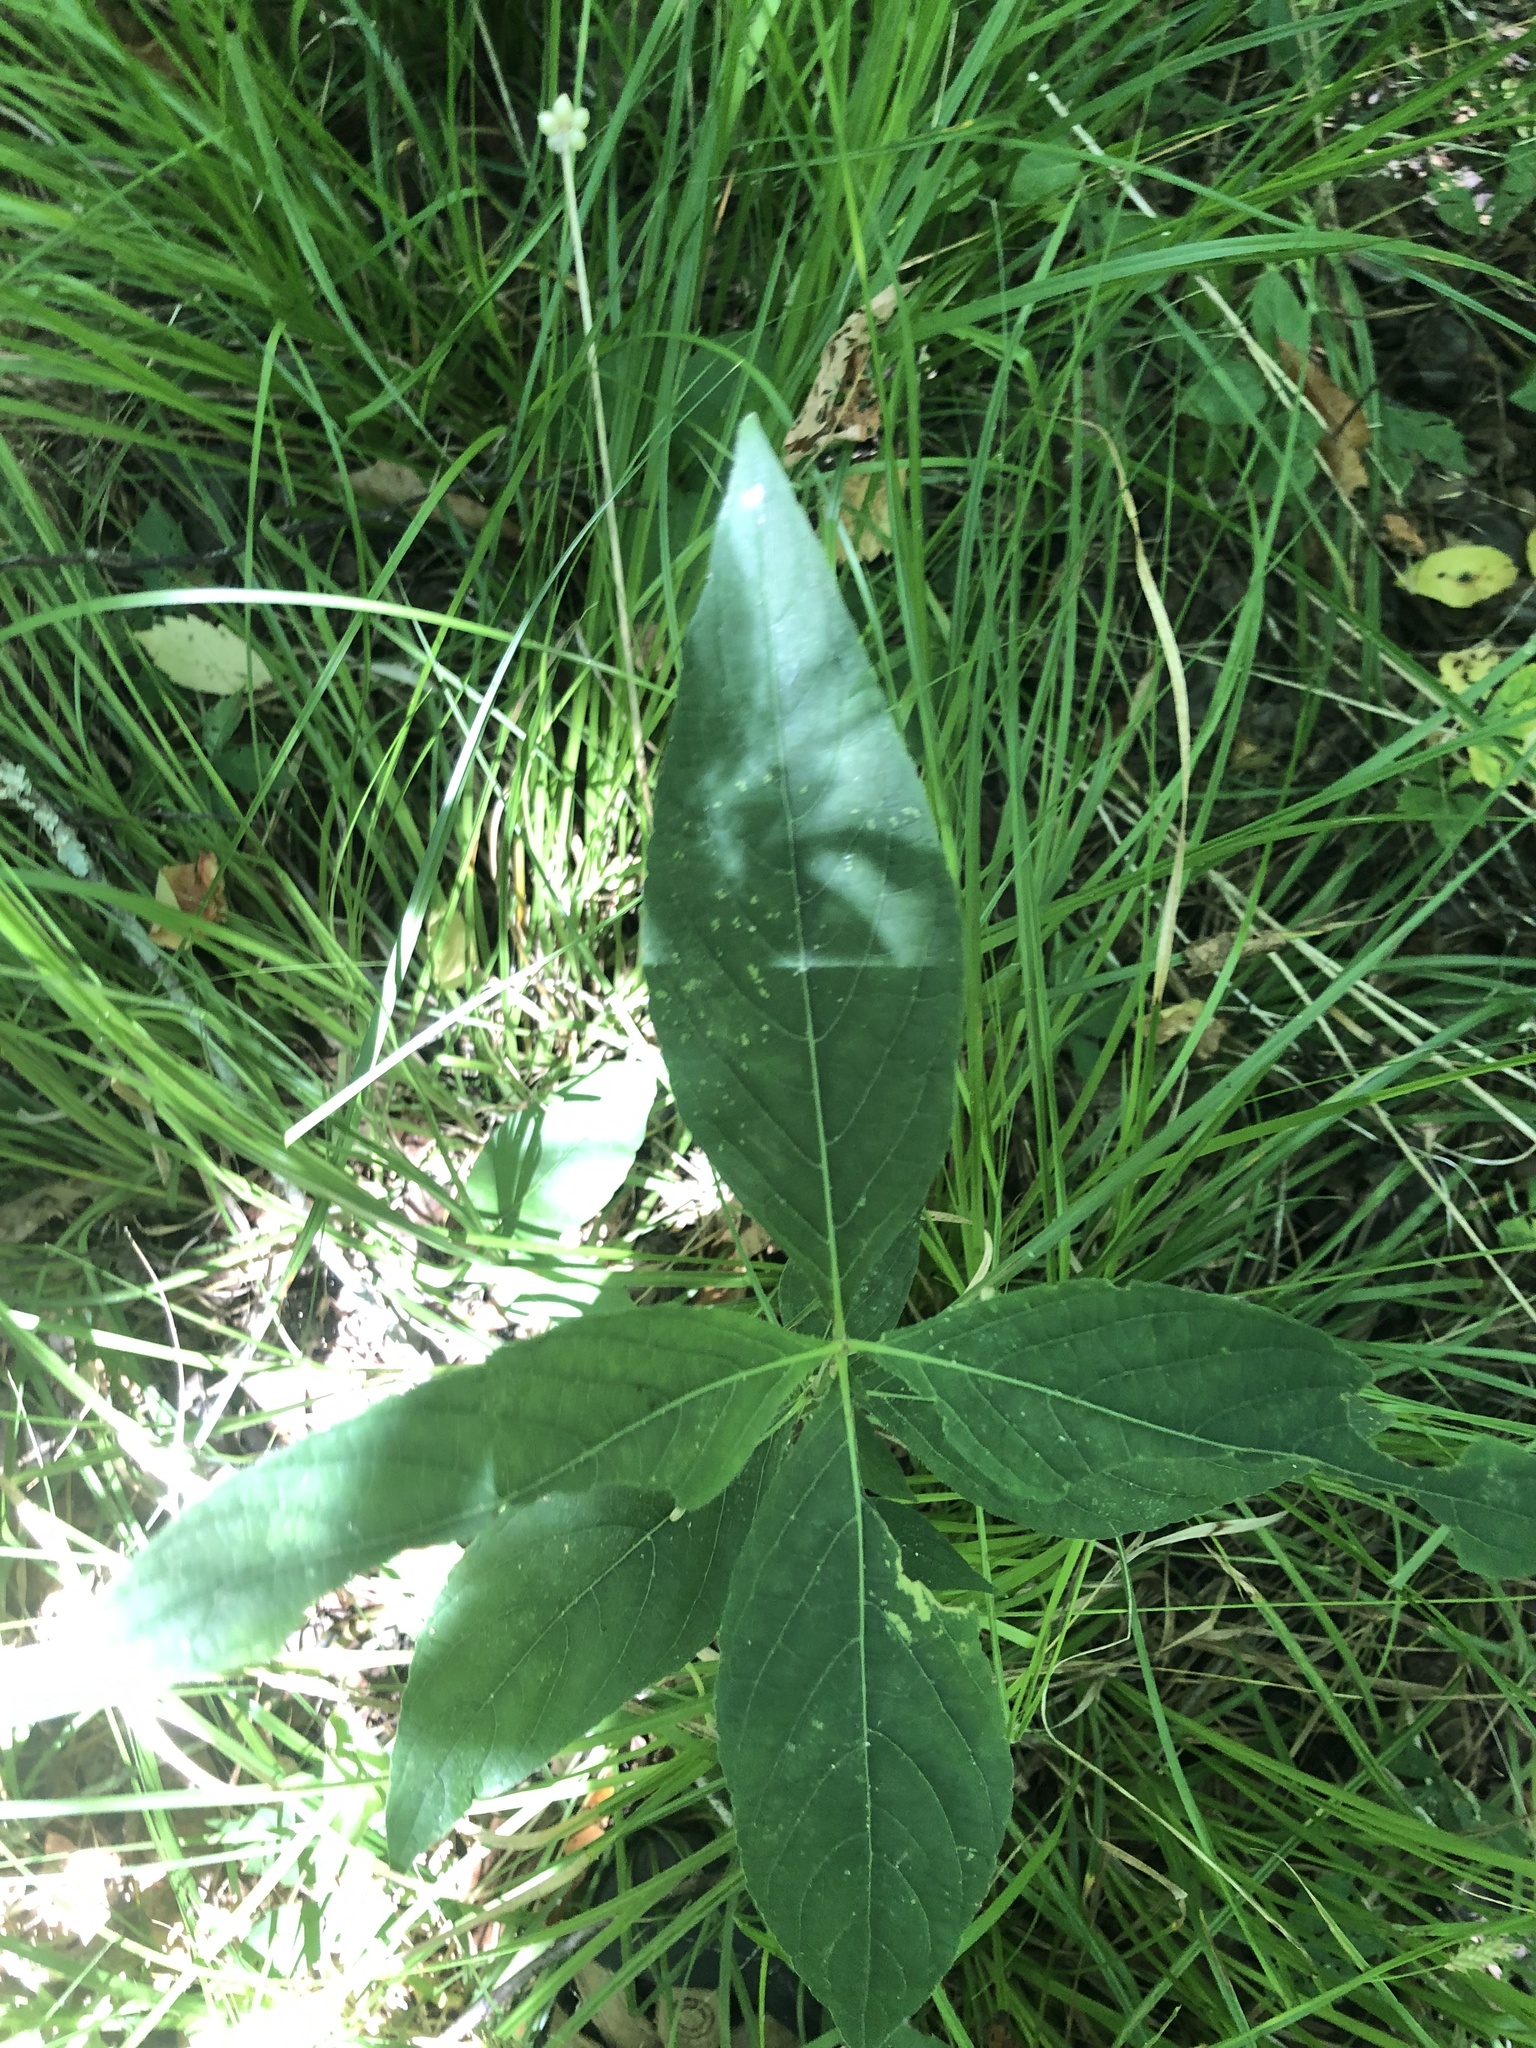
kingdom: Plantae
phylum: Tracheophyta
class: Magnoliopsida
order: Lamiales
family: Acanthaceae
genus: Ruellia
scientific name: Ruellia strepens
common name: Limestone wild petunia
